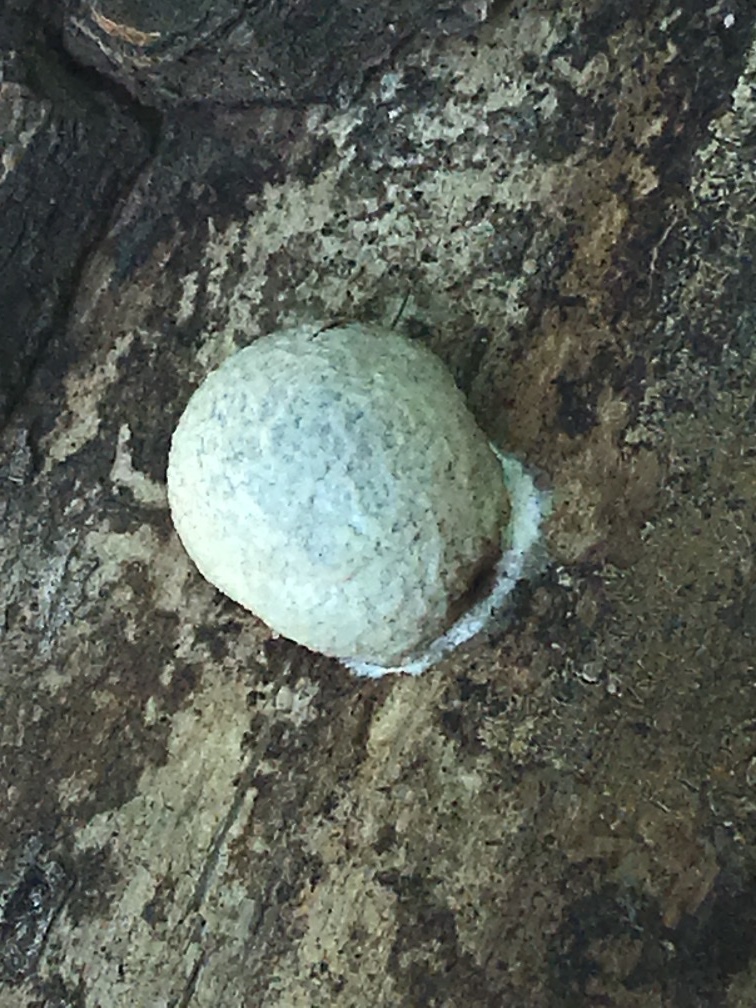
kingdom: Protozoa
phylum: Mycetozoa
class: Myxomycetes
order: Cribrariales
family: Tubiferaceae
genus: Reticularia
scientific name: Reticularia lycoperdon
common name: False puffball
